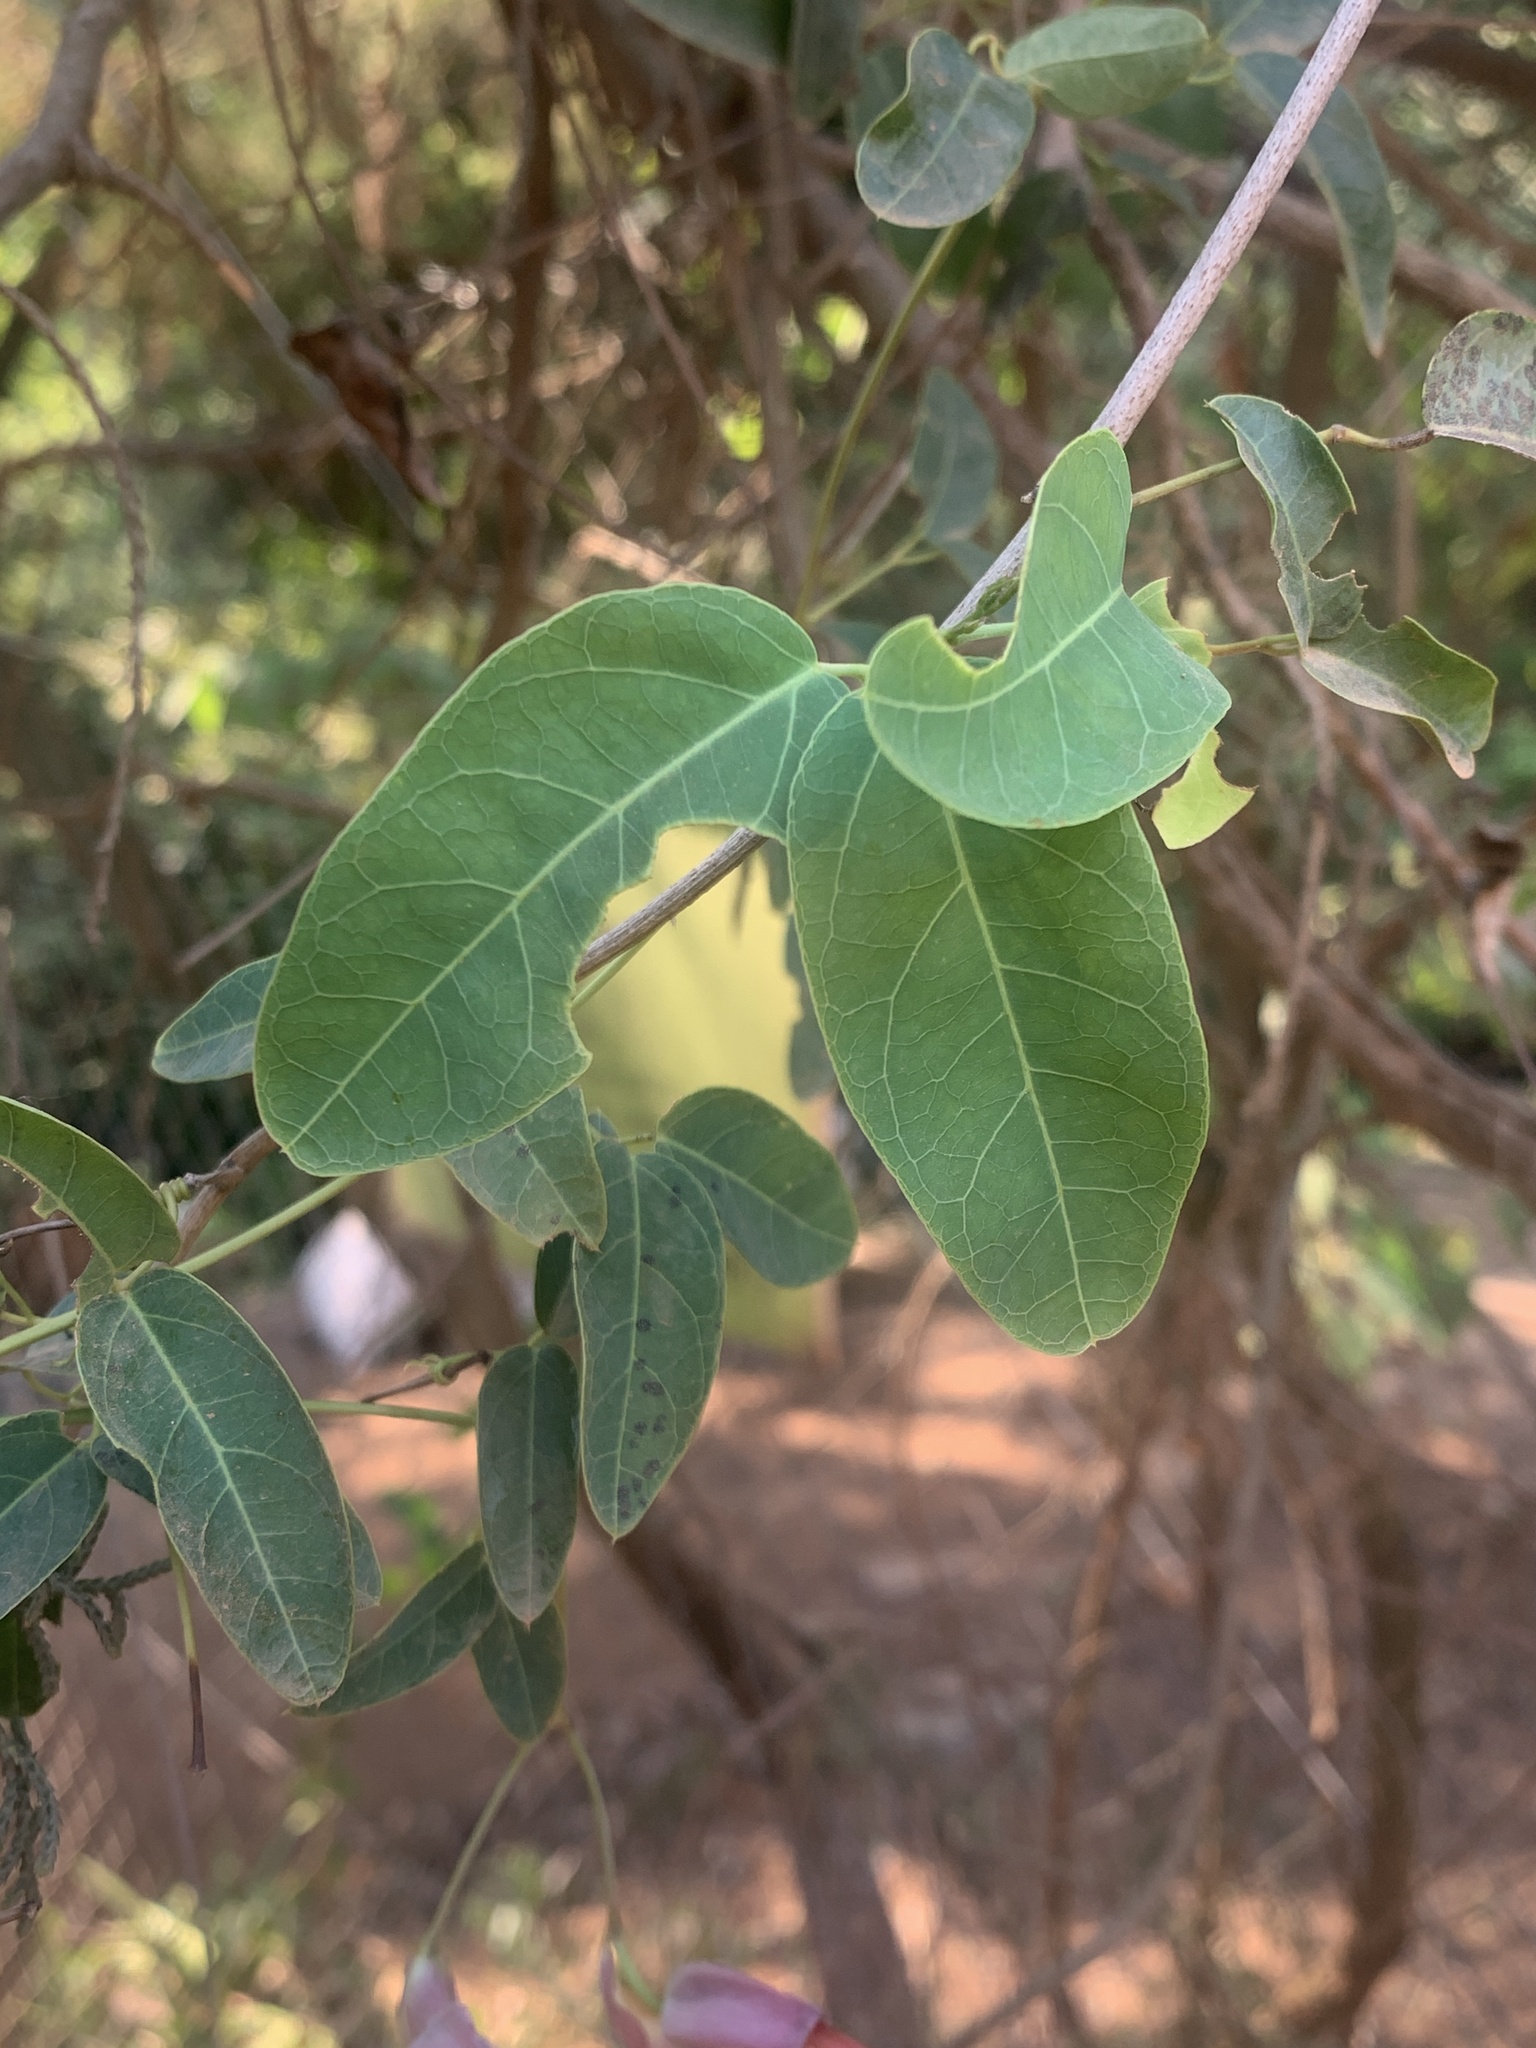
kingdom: Plantae
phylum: Tracheophyta
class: Magnoliopsida
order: Lamiales
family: Bignoniaceae
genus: Dolichandra
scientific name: Dolichandra cynanchoides
